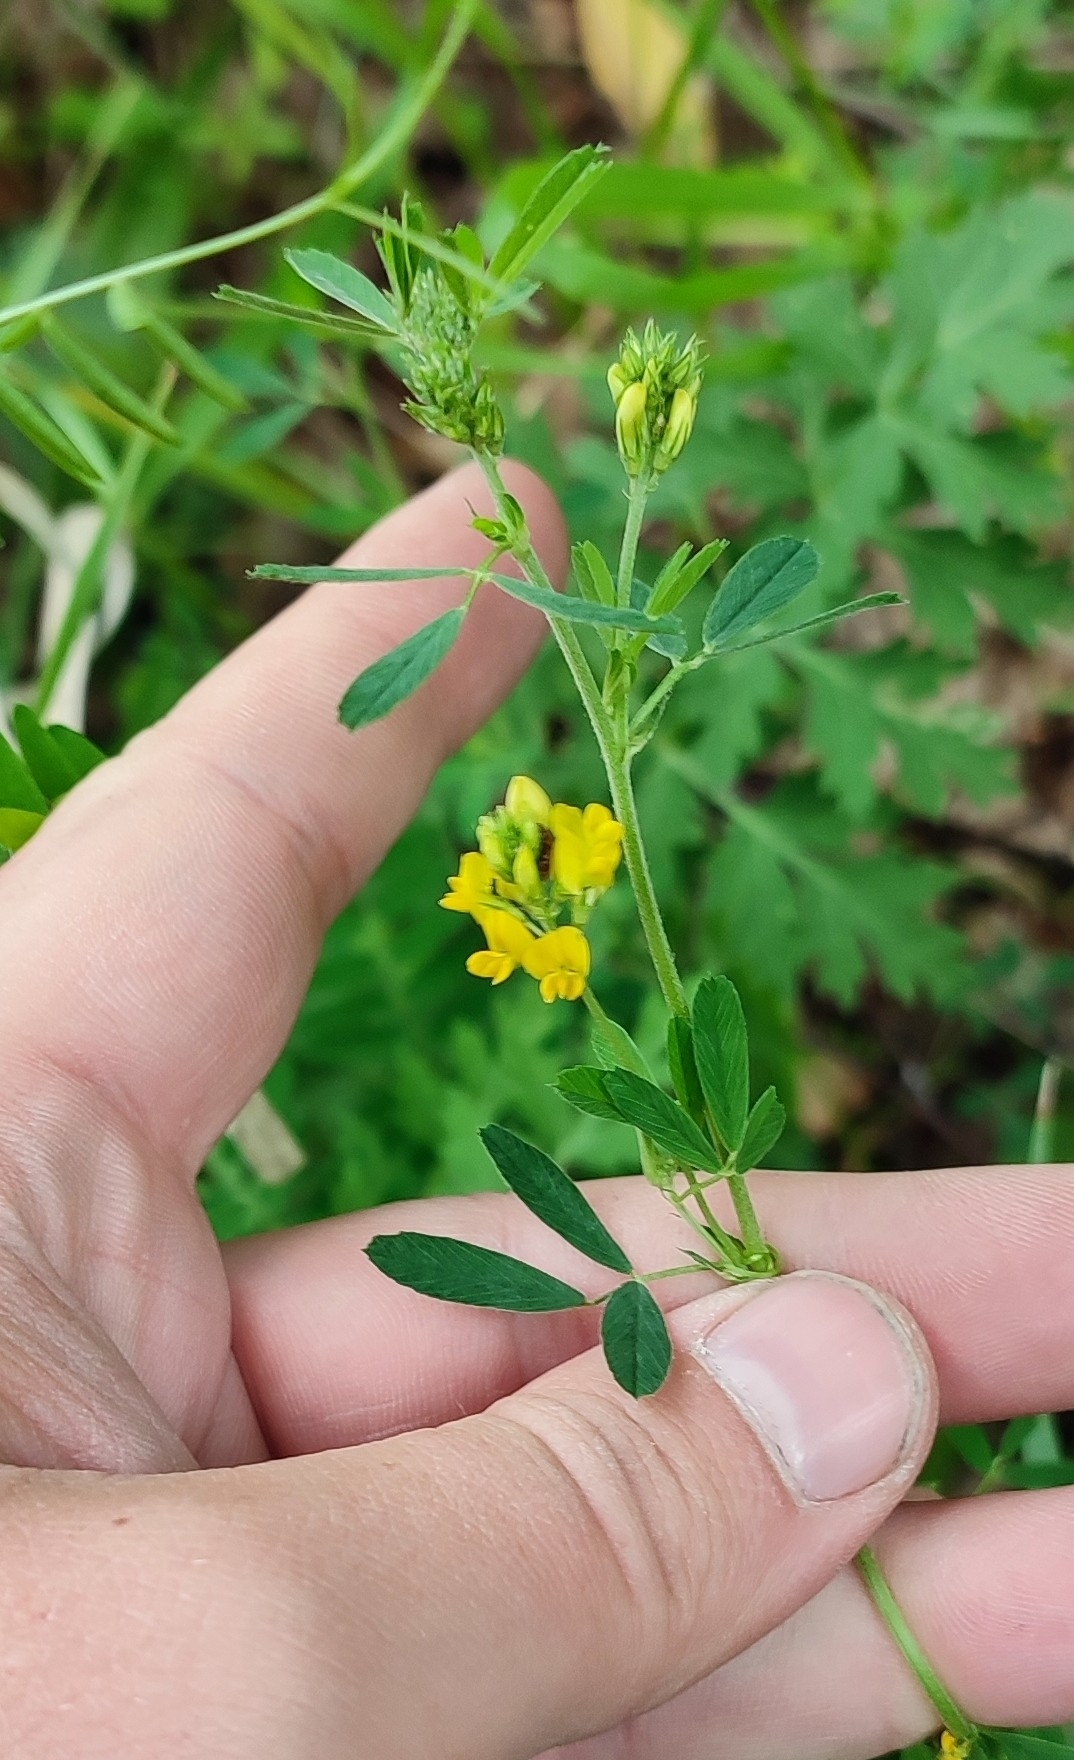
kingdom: Plantae
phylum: Tracheophyta
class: Magnoliopsida
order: Fabales
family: Fabaceae
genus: Medicago
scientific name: Medicago falcata
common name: Sickle medick
